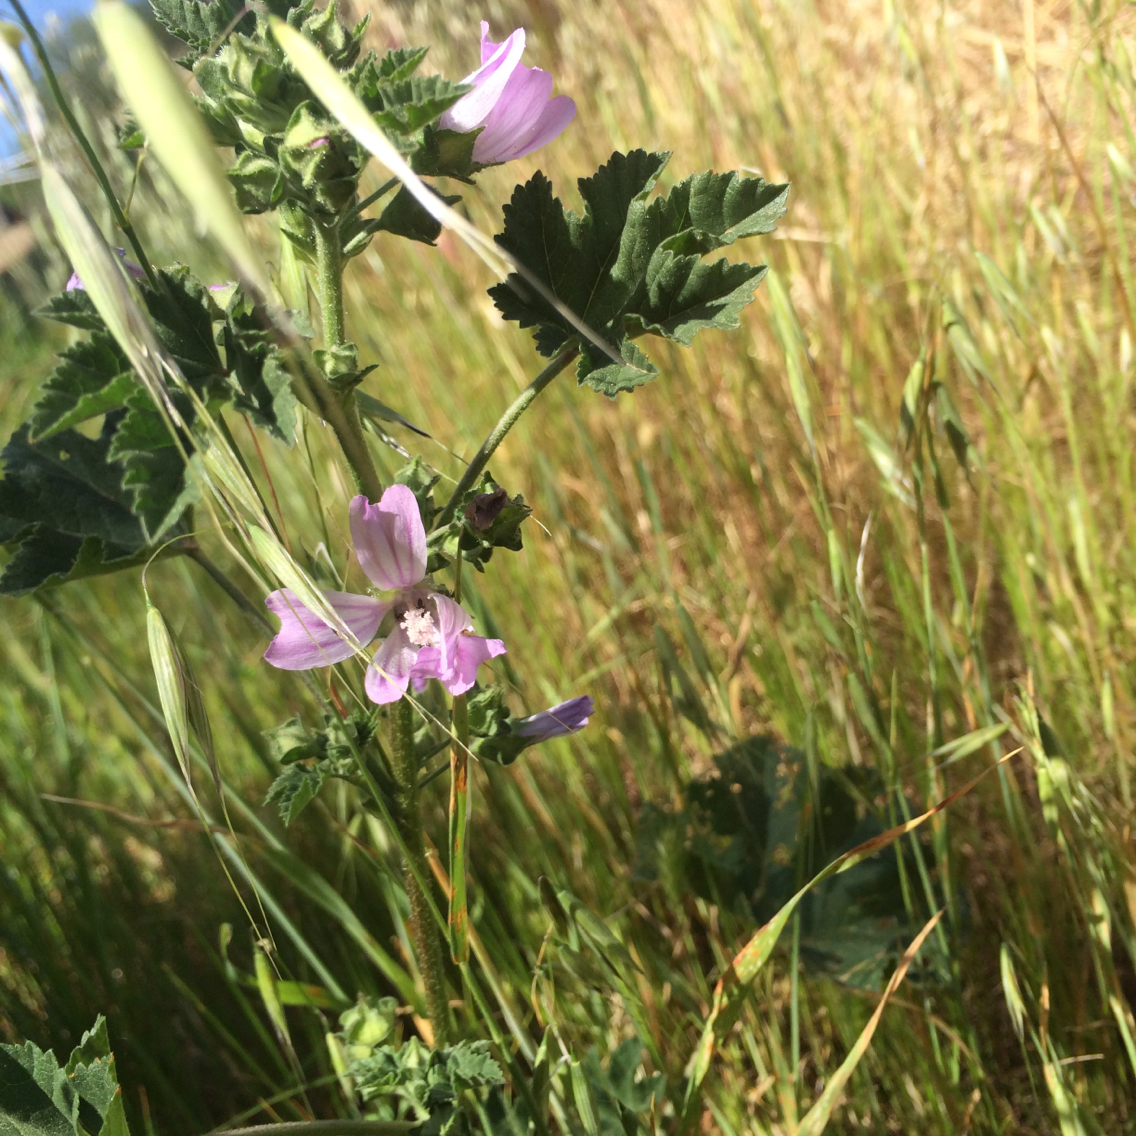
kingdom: Plantae
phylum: Tracheophyta
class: Magnoliopsida
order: Malvales
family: Malvaceae
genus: Malva
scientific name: Malva multiflora
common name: Cheeseweed
